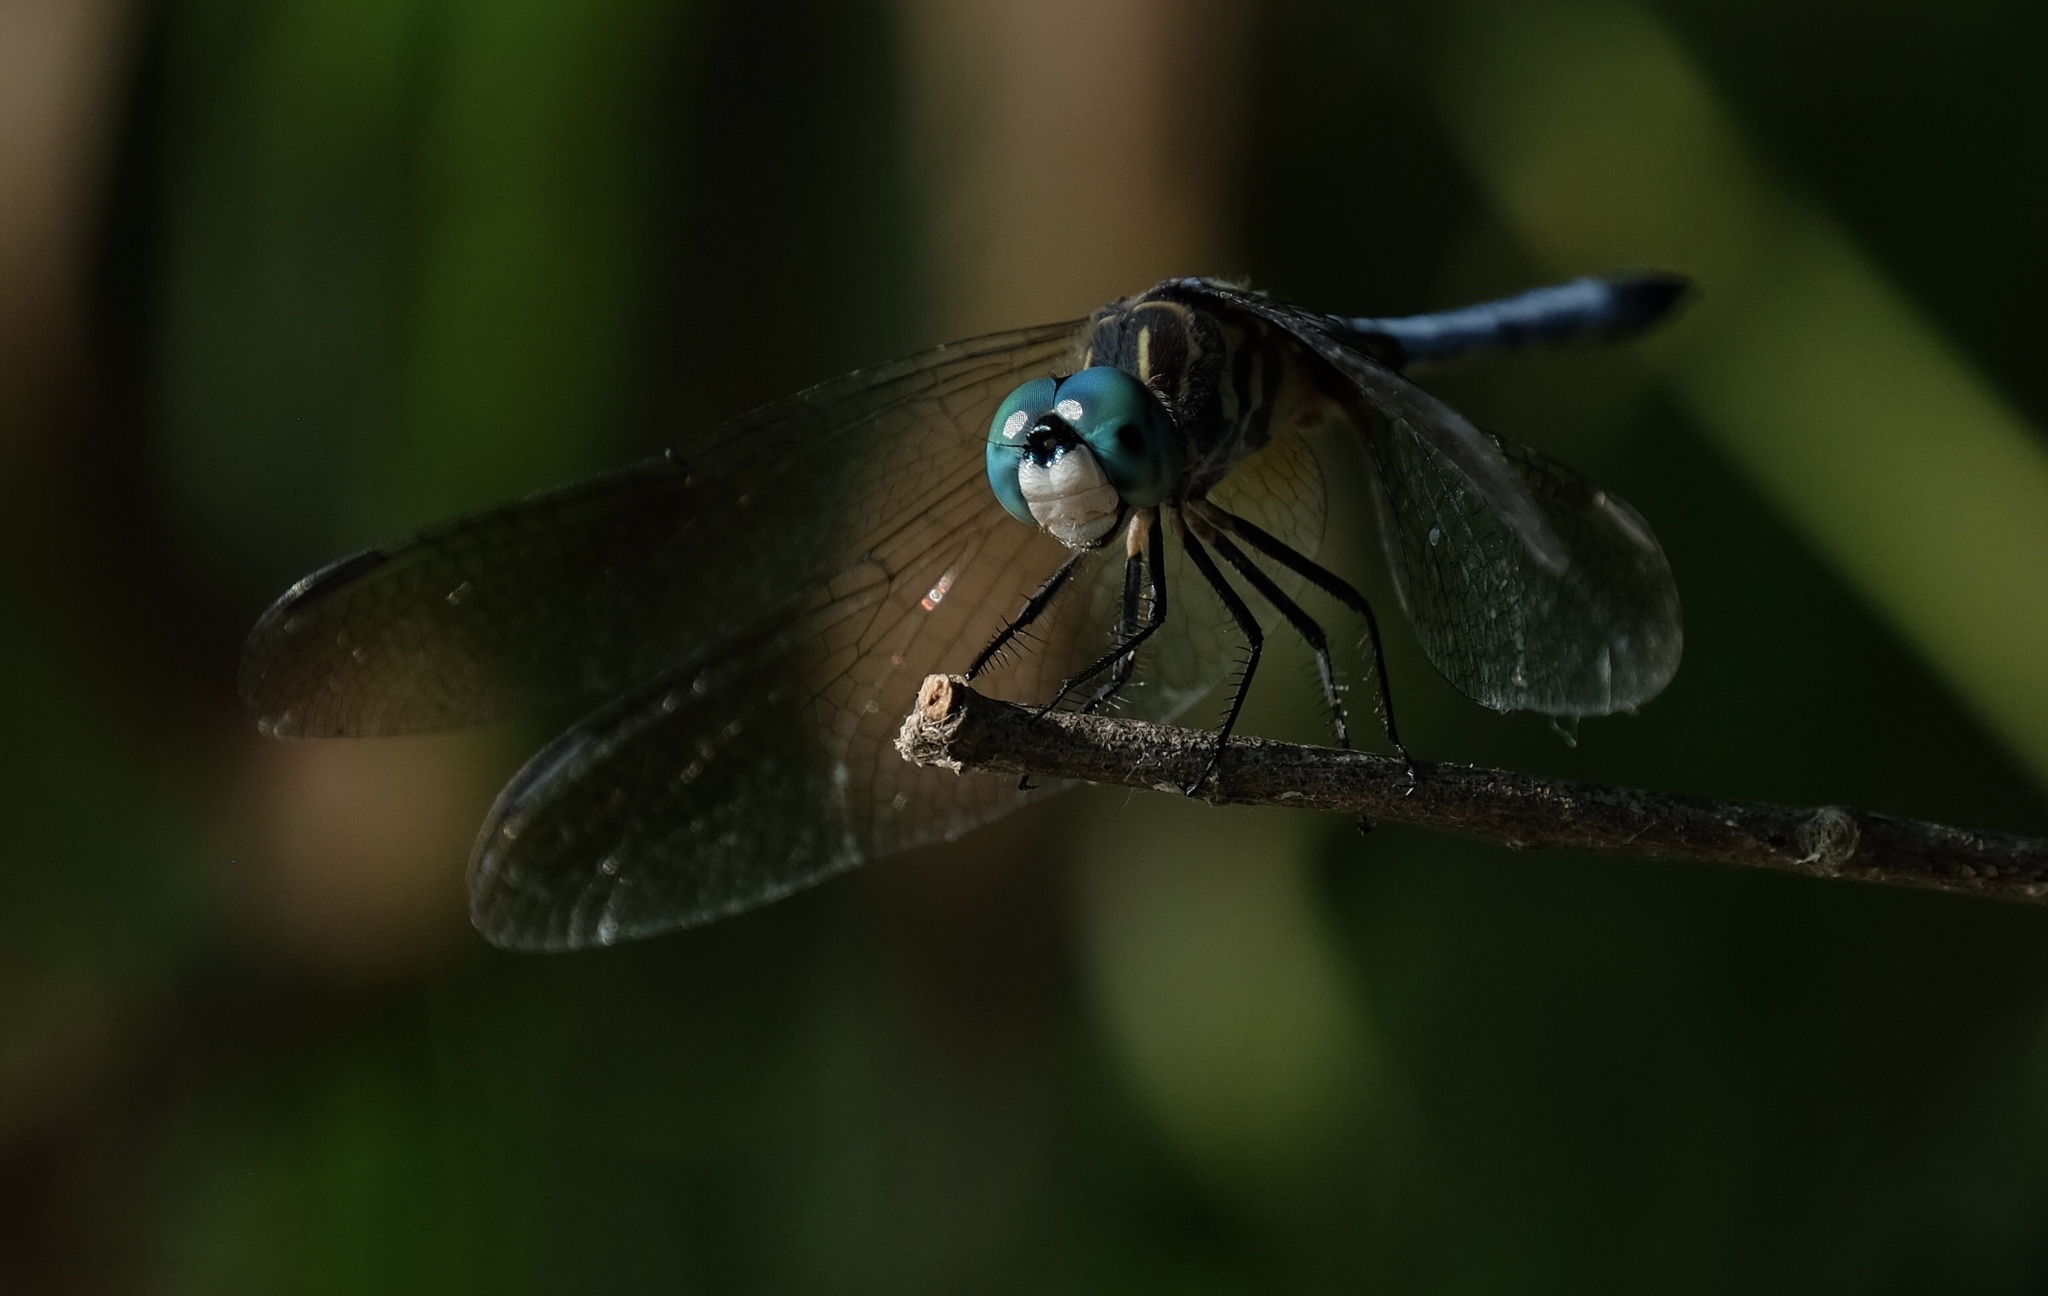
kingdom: Animalia
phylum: Arthropoda
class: Insecta
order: Odonata
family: Libellulidae
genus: Pachydiplax
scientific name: Pachydiplax longipennis
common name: Blue dasher
